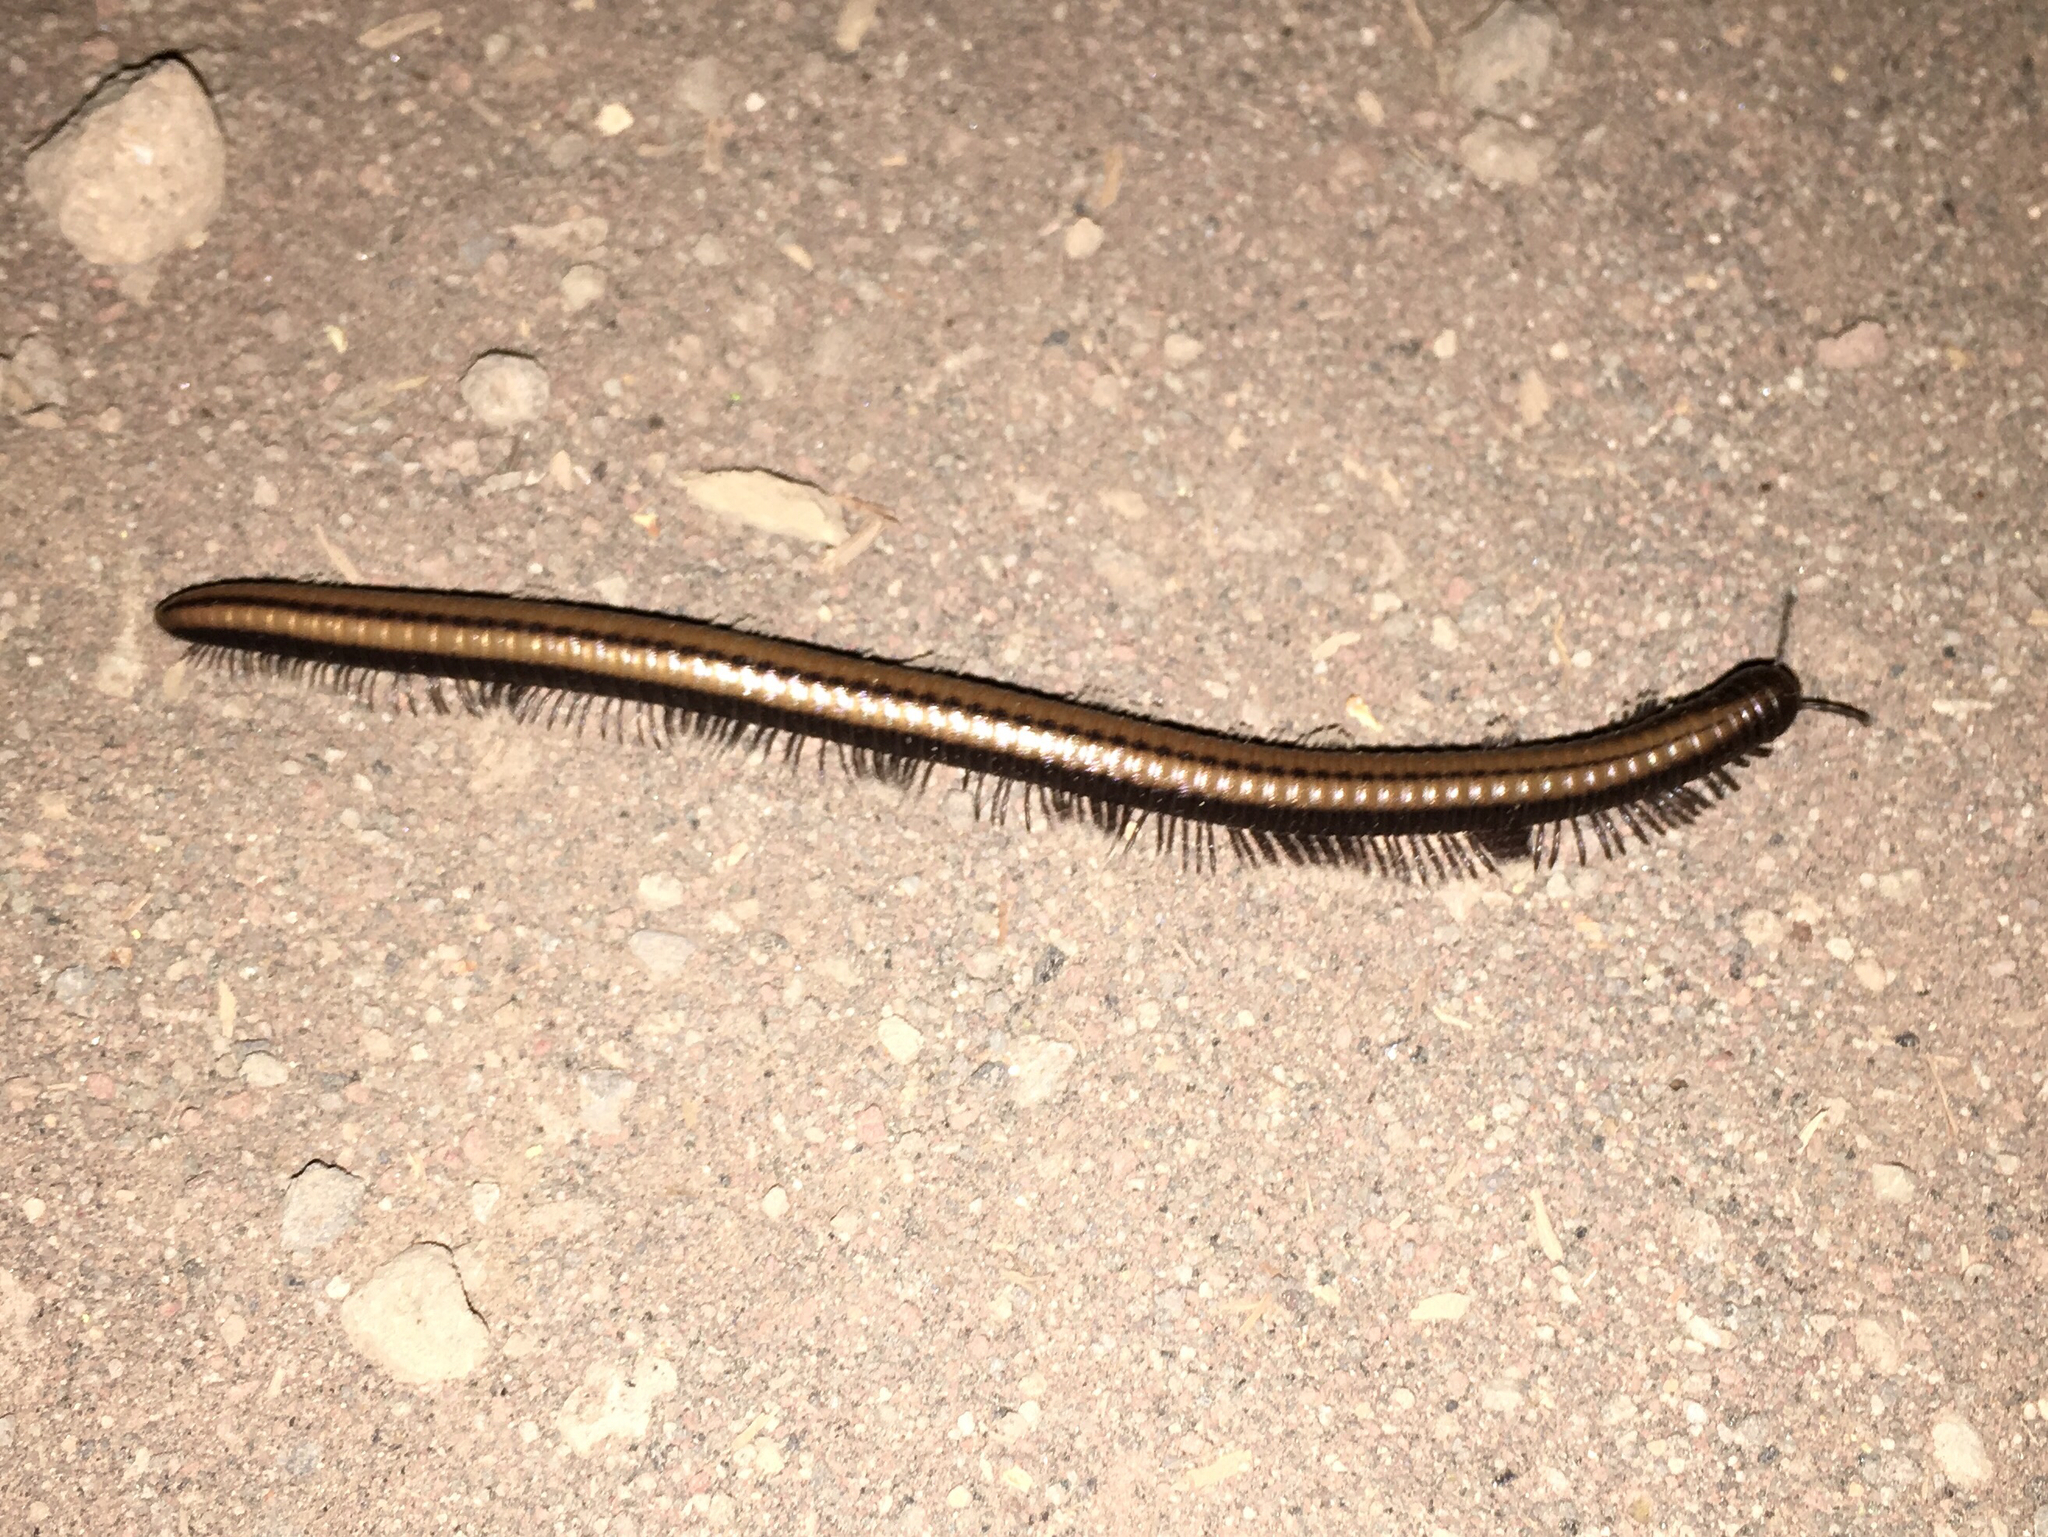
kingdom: Animalia
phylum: Arthropoda
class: Diplopoda
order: Julida
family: Paeromopodidae
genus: Californiulus
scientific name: Californiulus yosemitensis
